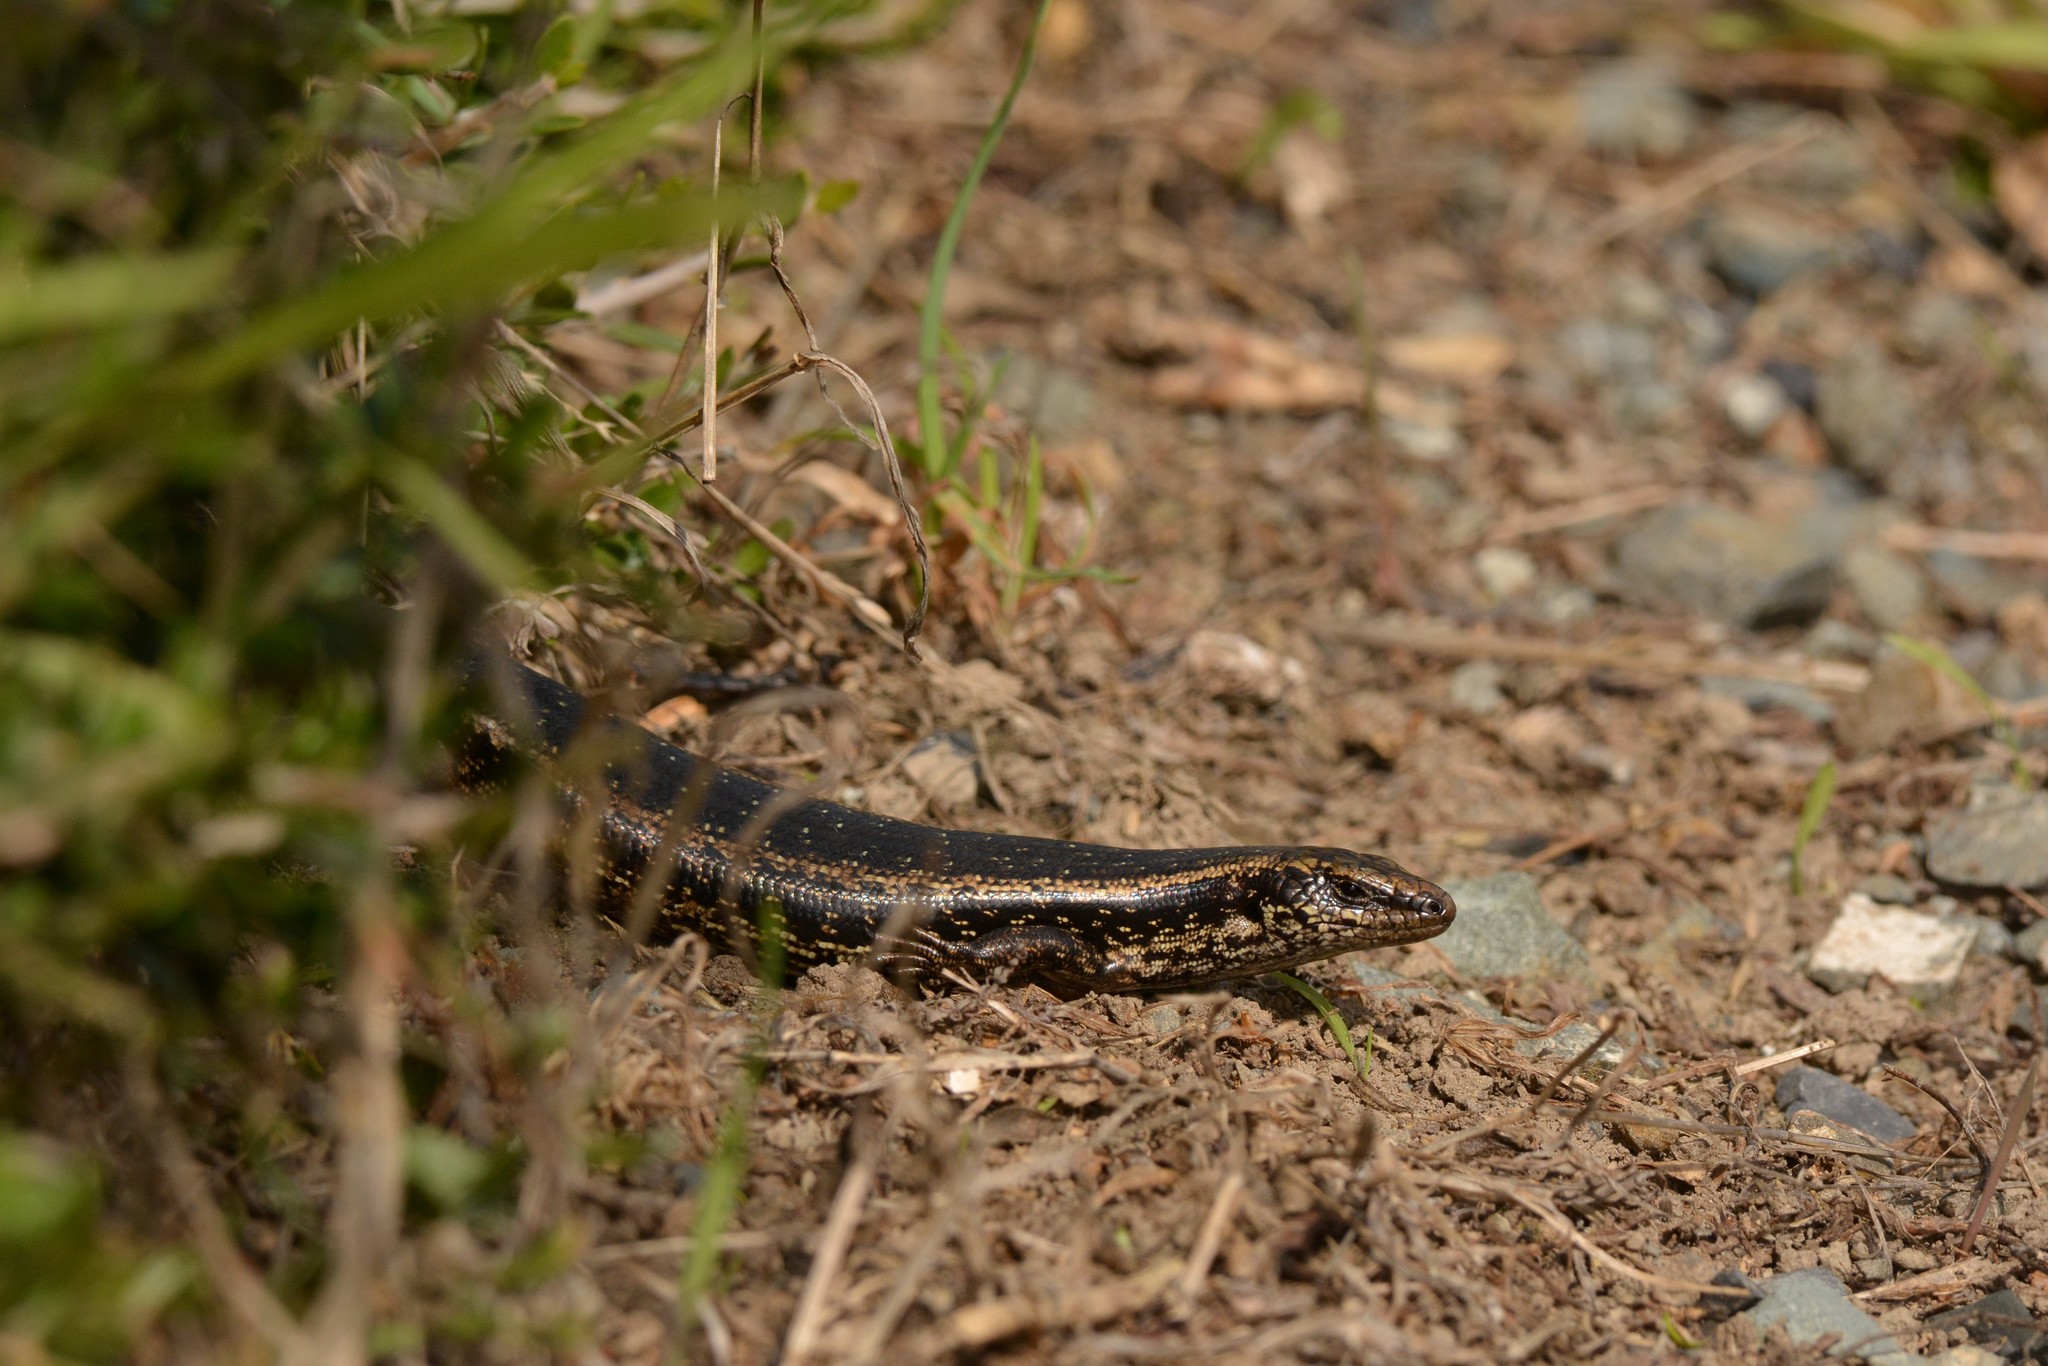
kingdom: Animalia
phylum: Chordata
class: Squamata
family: Scincidae
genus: Oligosoma
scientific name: Oligosoma kokowai
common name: Northern spotted skink
